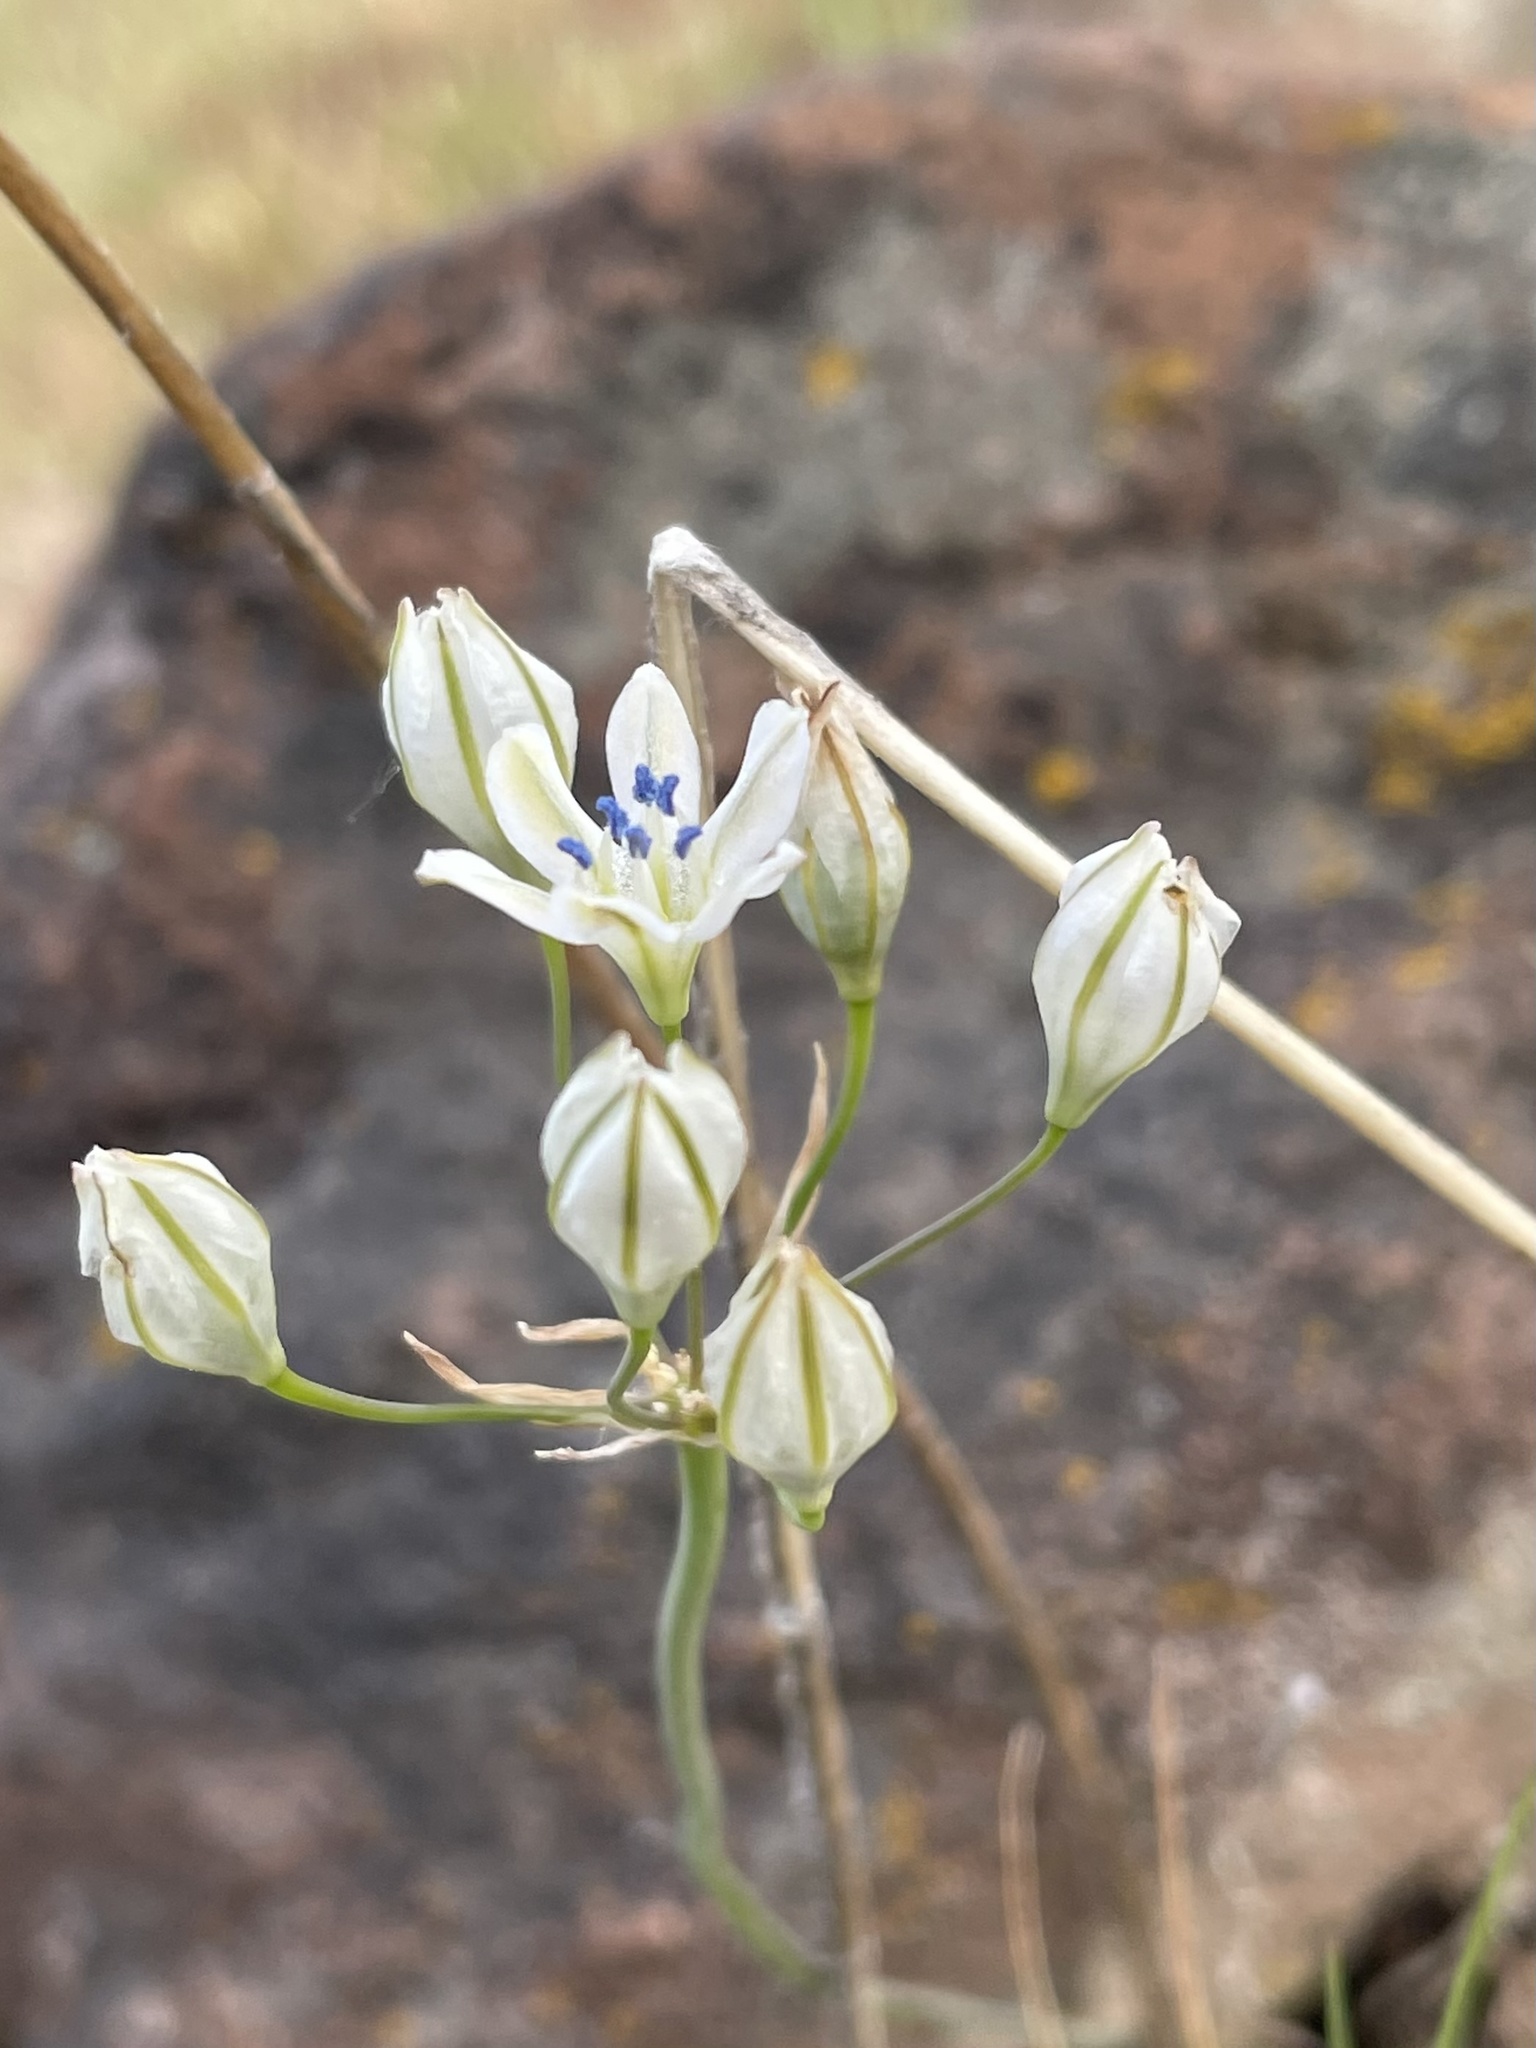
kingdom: Plantae
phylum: Tracheophyta
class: Liliopsida
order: Asparagales
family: Asparagaceae
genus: Triteleia
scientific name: Triteleia lilacina
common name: Lilac-flower wild hyacinth
